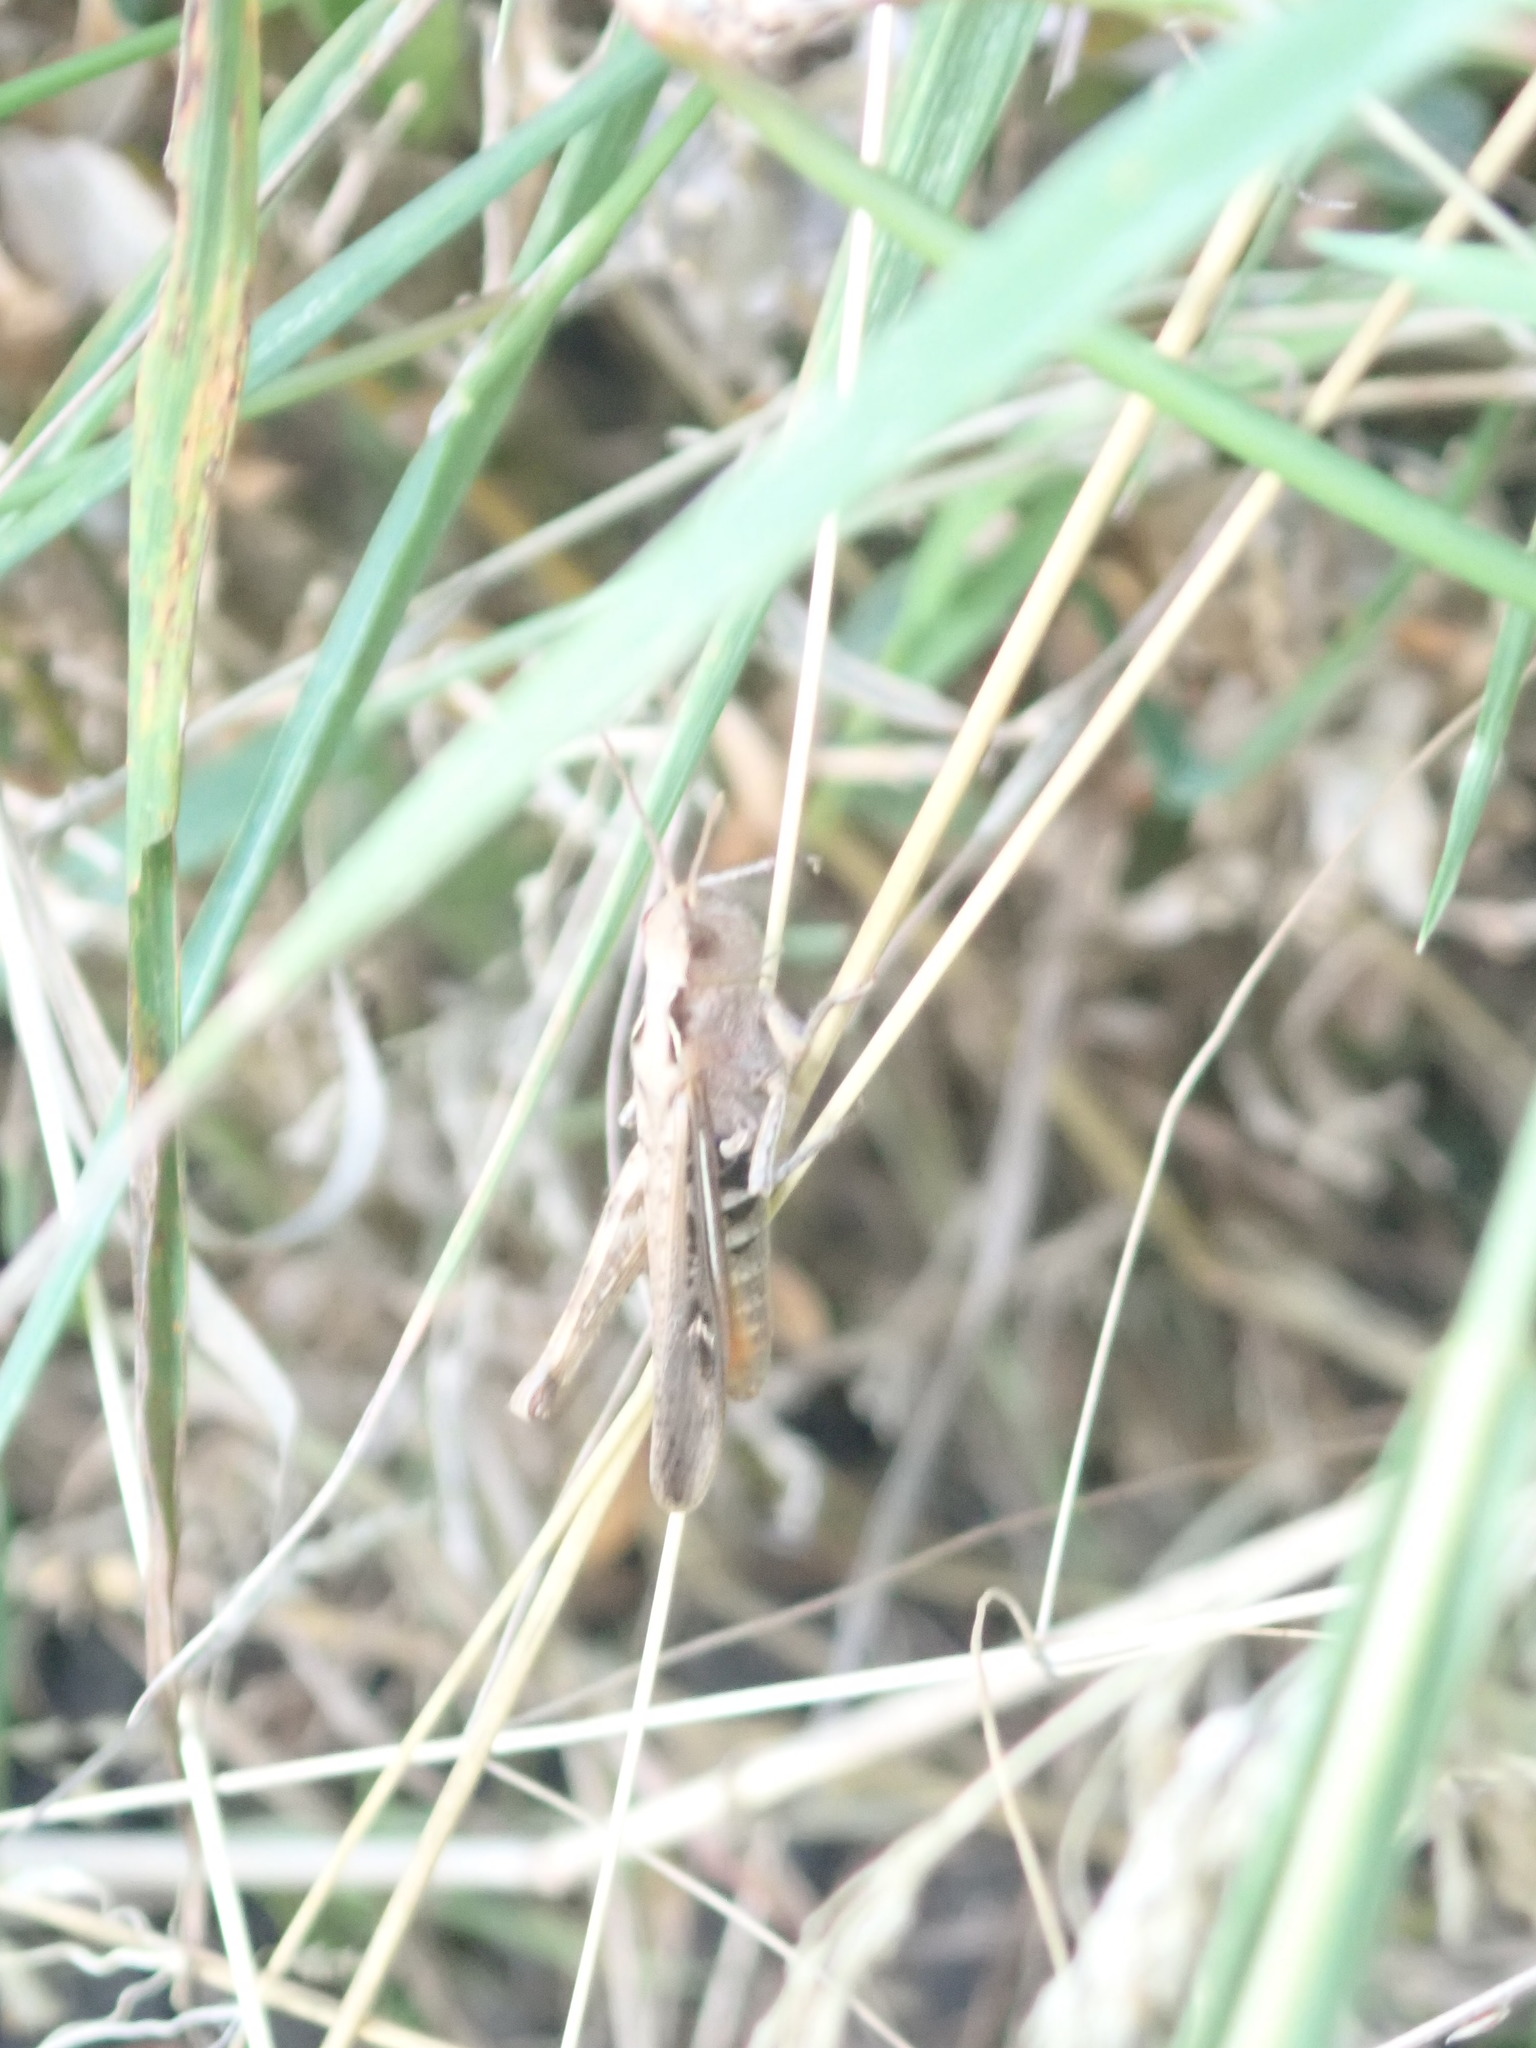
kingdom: Animalia
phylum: Arthropoda
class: Insecta
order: Orthoptera
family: Acrididae
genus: Chorthippus
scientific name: Chorthippus brunneus
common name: Field grasshopper
